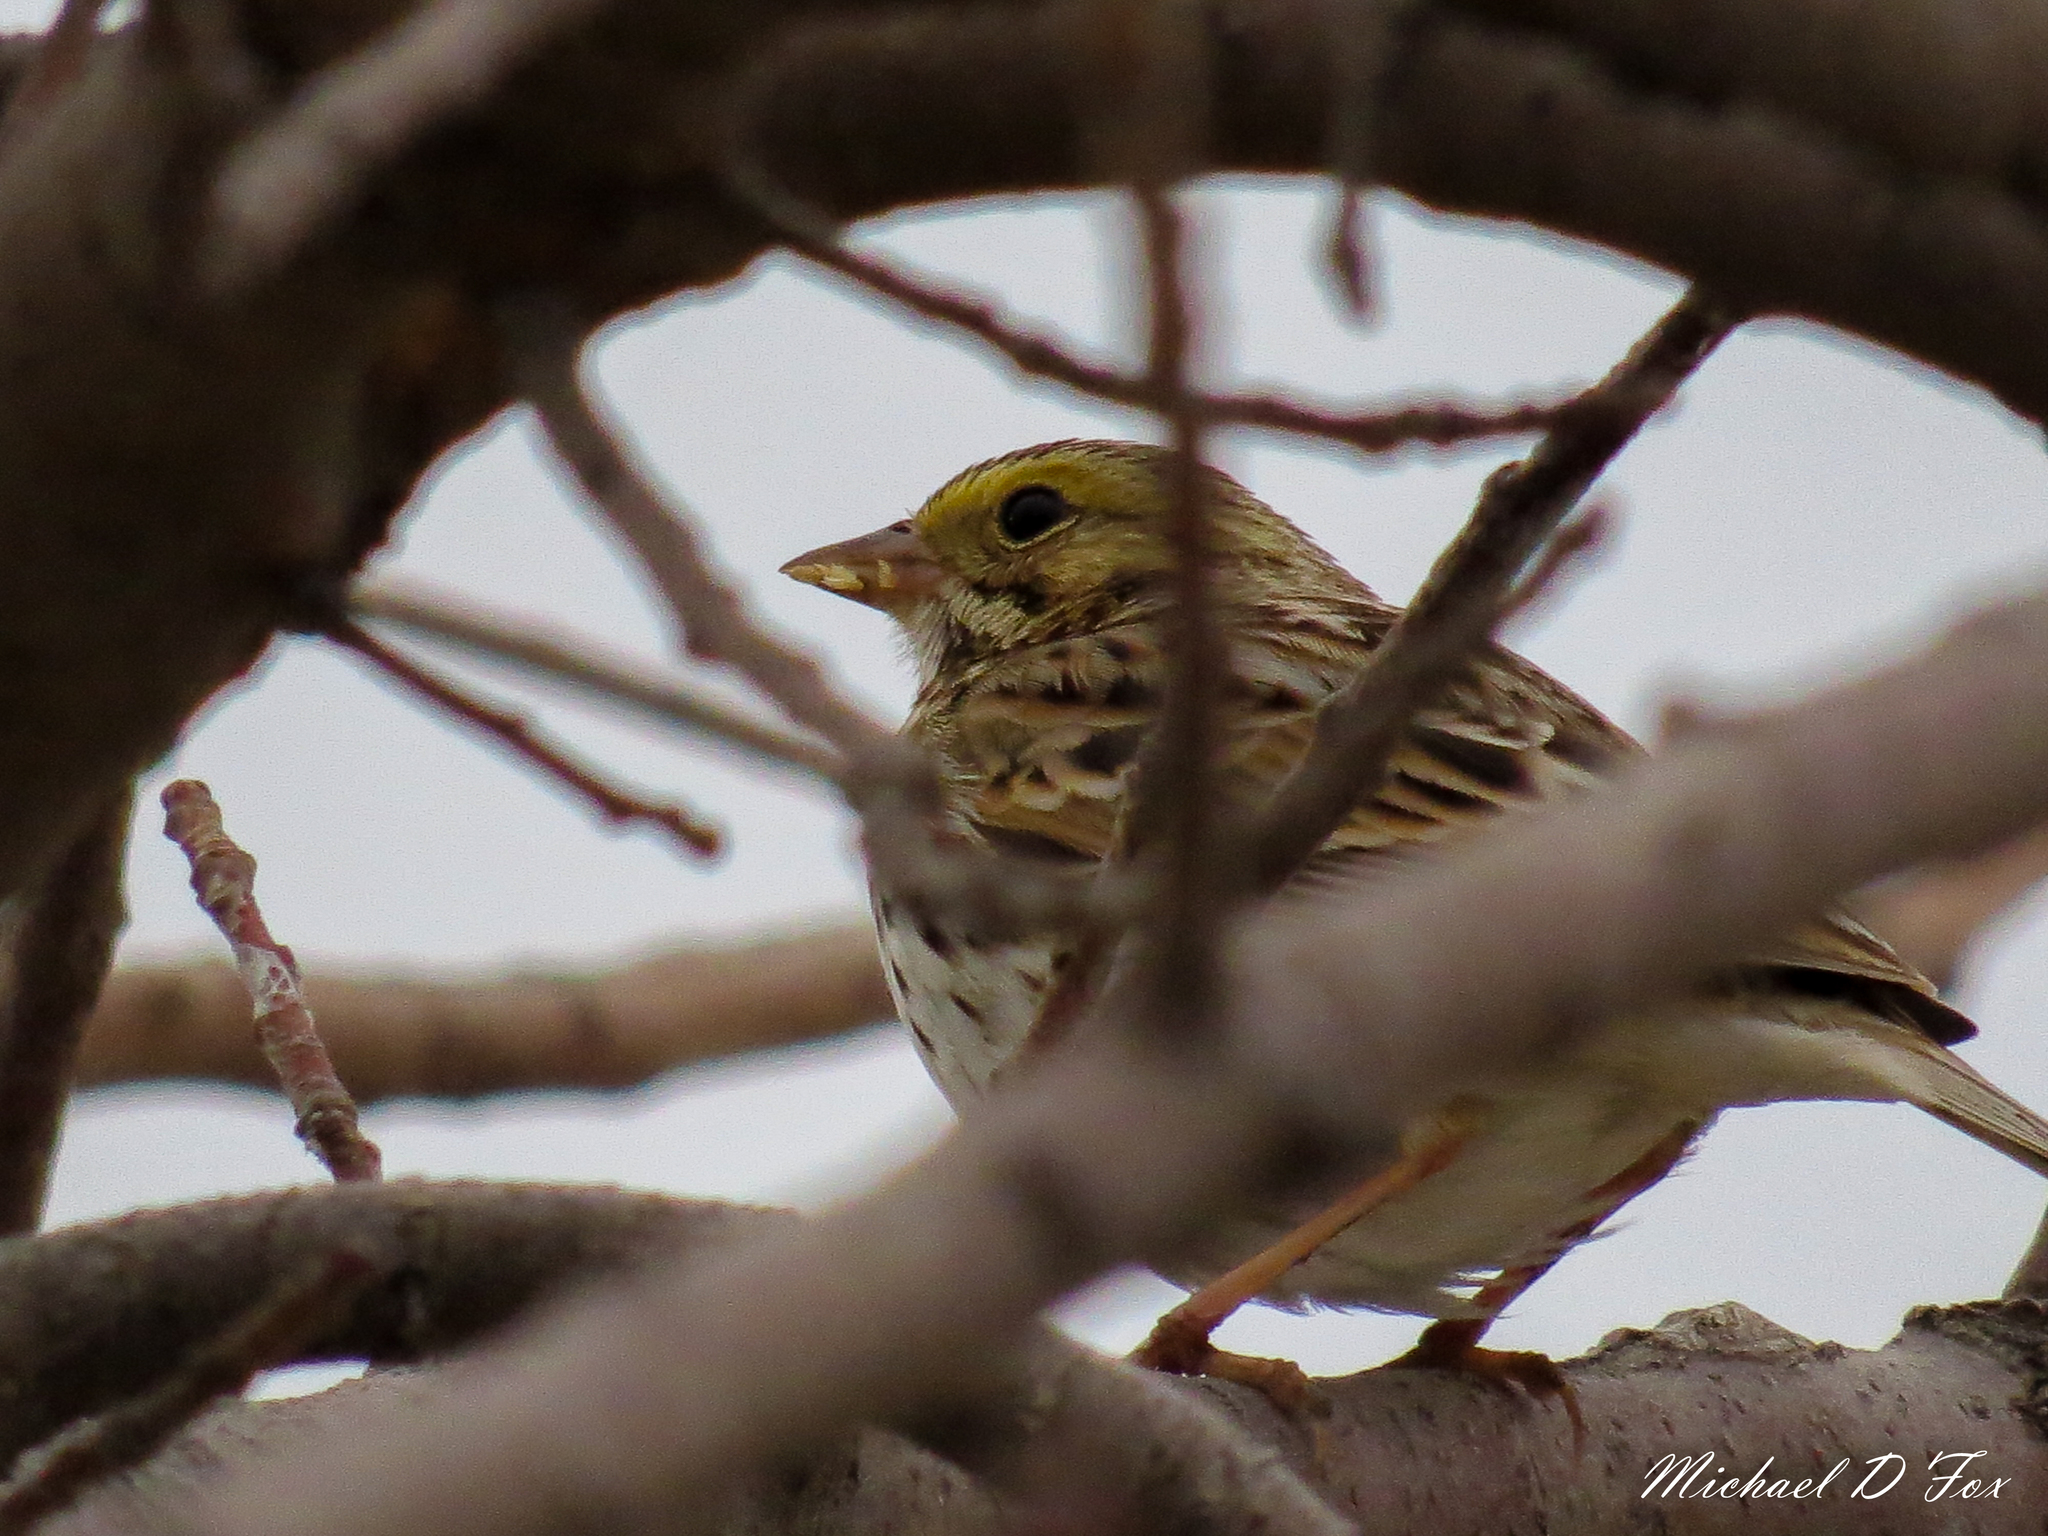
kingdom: Animalia
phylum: Chordata
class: Aves
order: Passeriformes
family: Passerellidae
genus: Passerculus
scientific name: Passerculus sandwichensis
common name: Savannah sparrow
